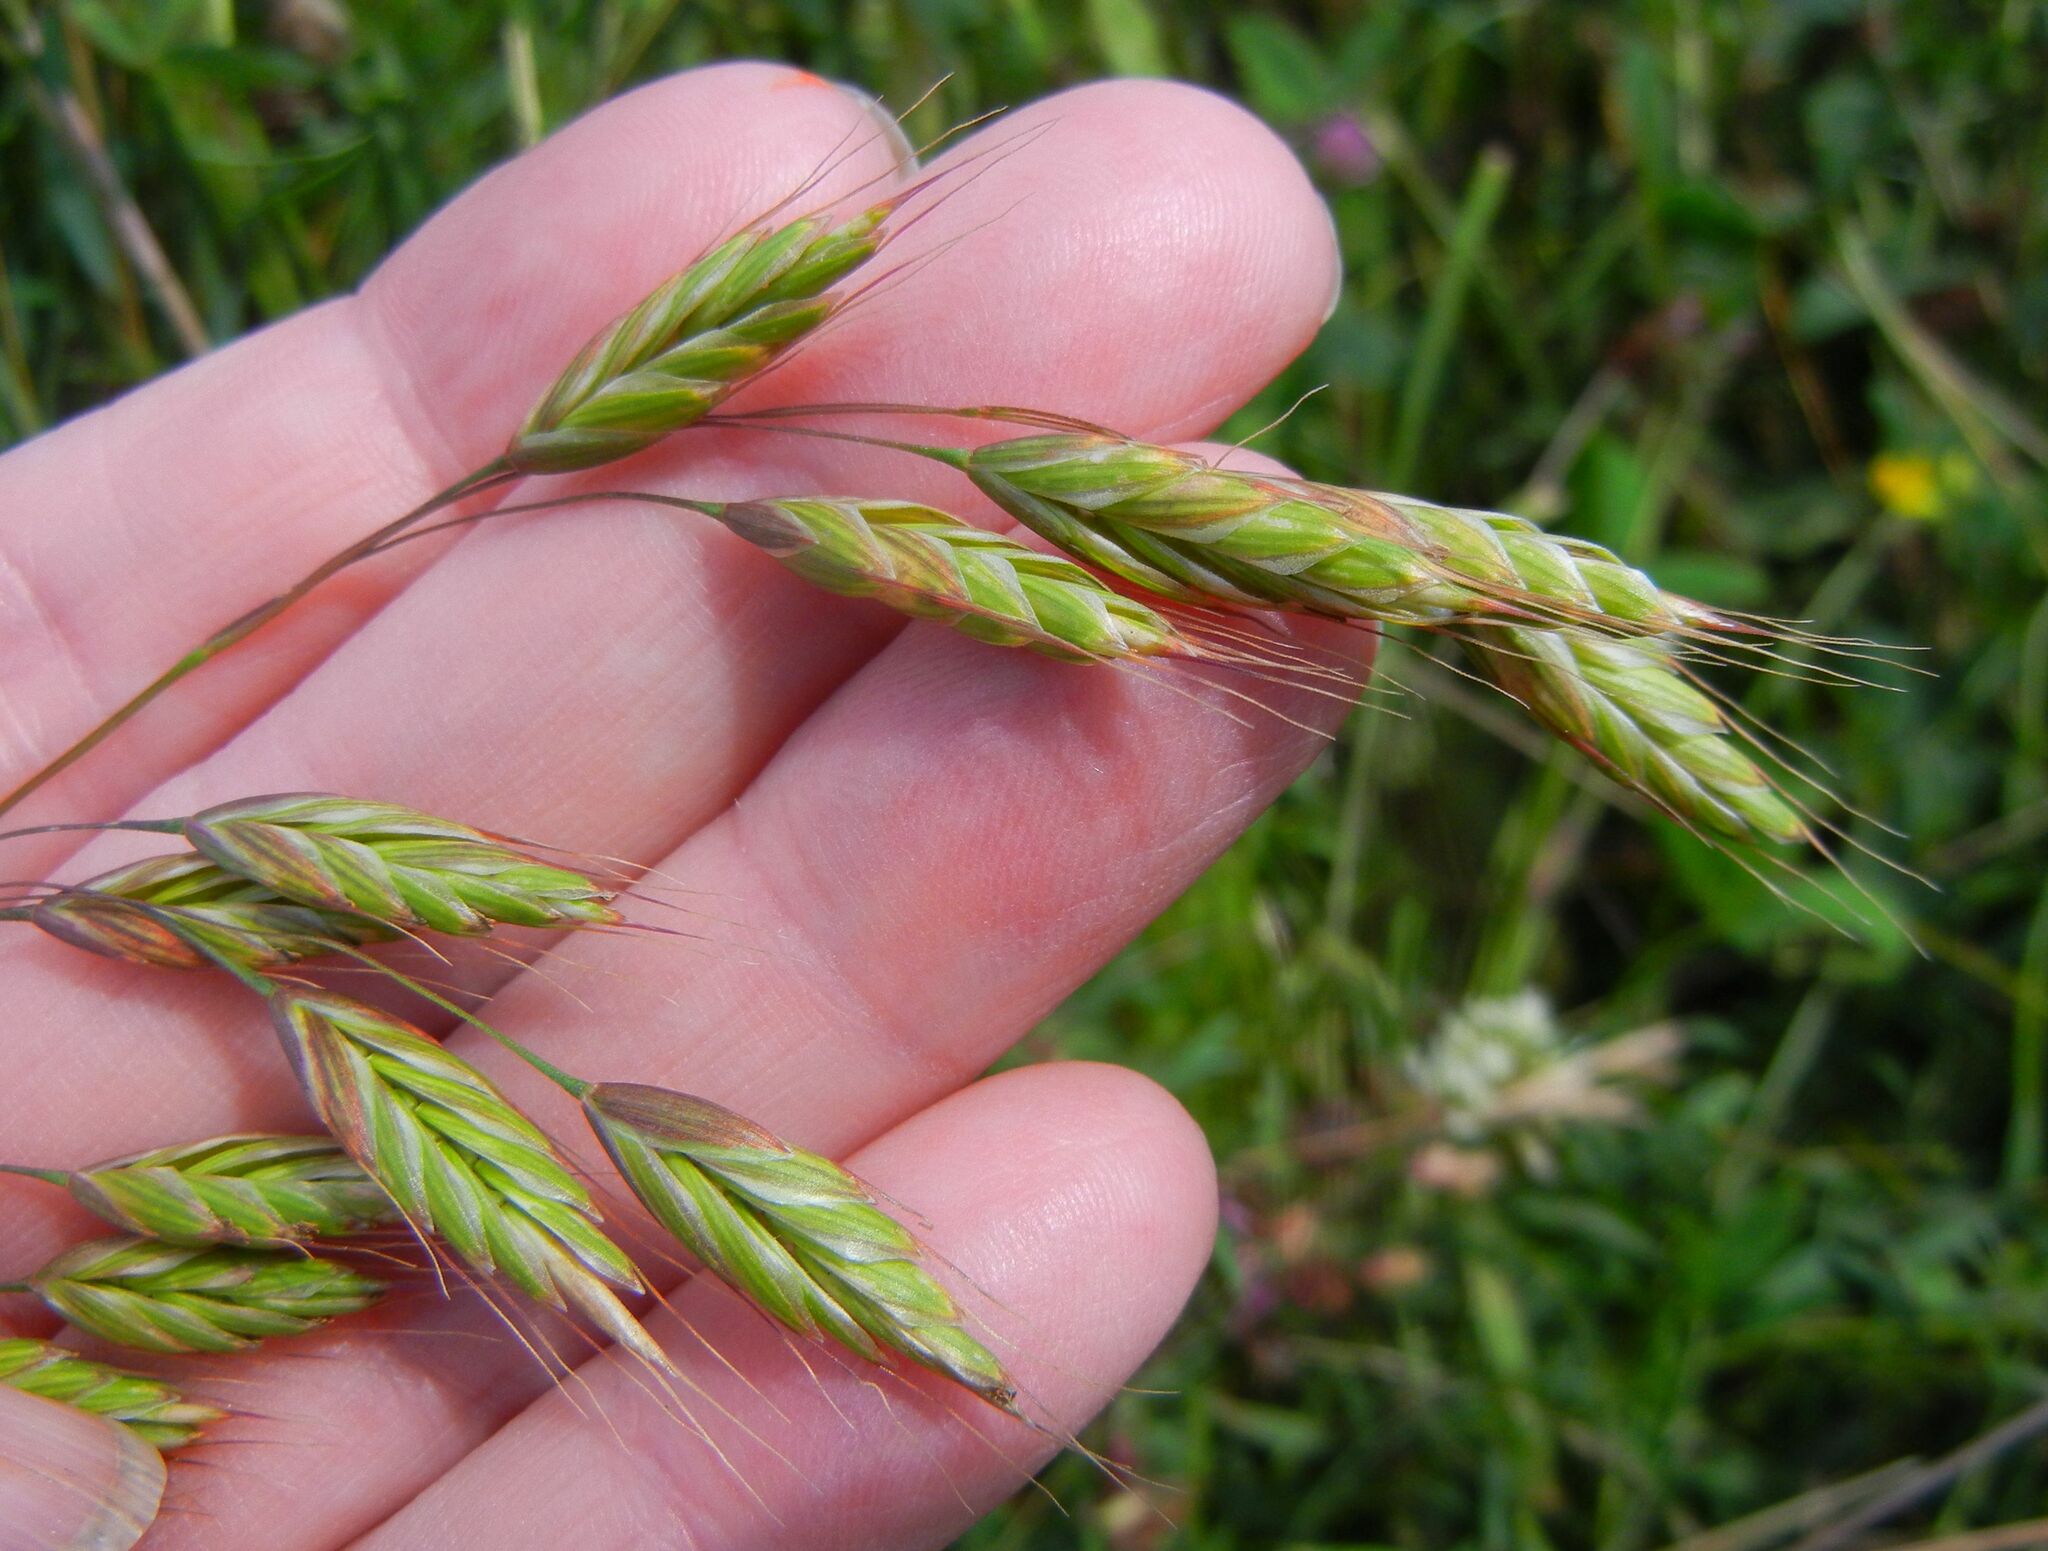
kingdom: Plantae
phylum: Tracheophyta
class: Liliopsida
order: Poales
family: Poaceae
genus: Bromus
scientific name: Bromus hordeaceus
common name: Soft brome
